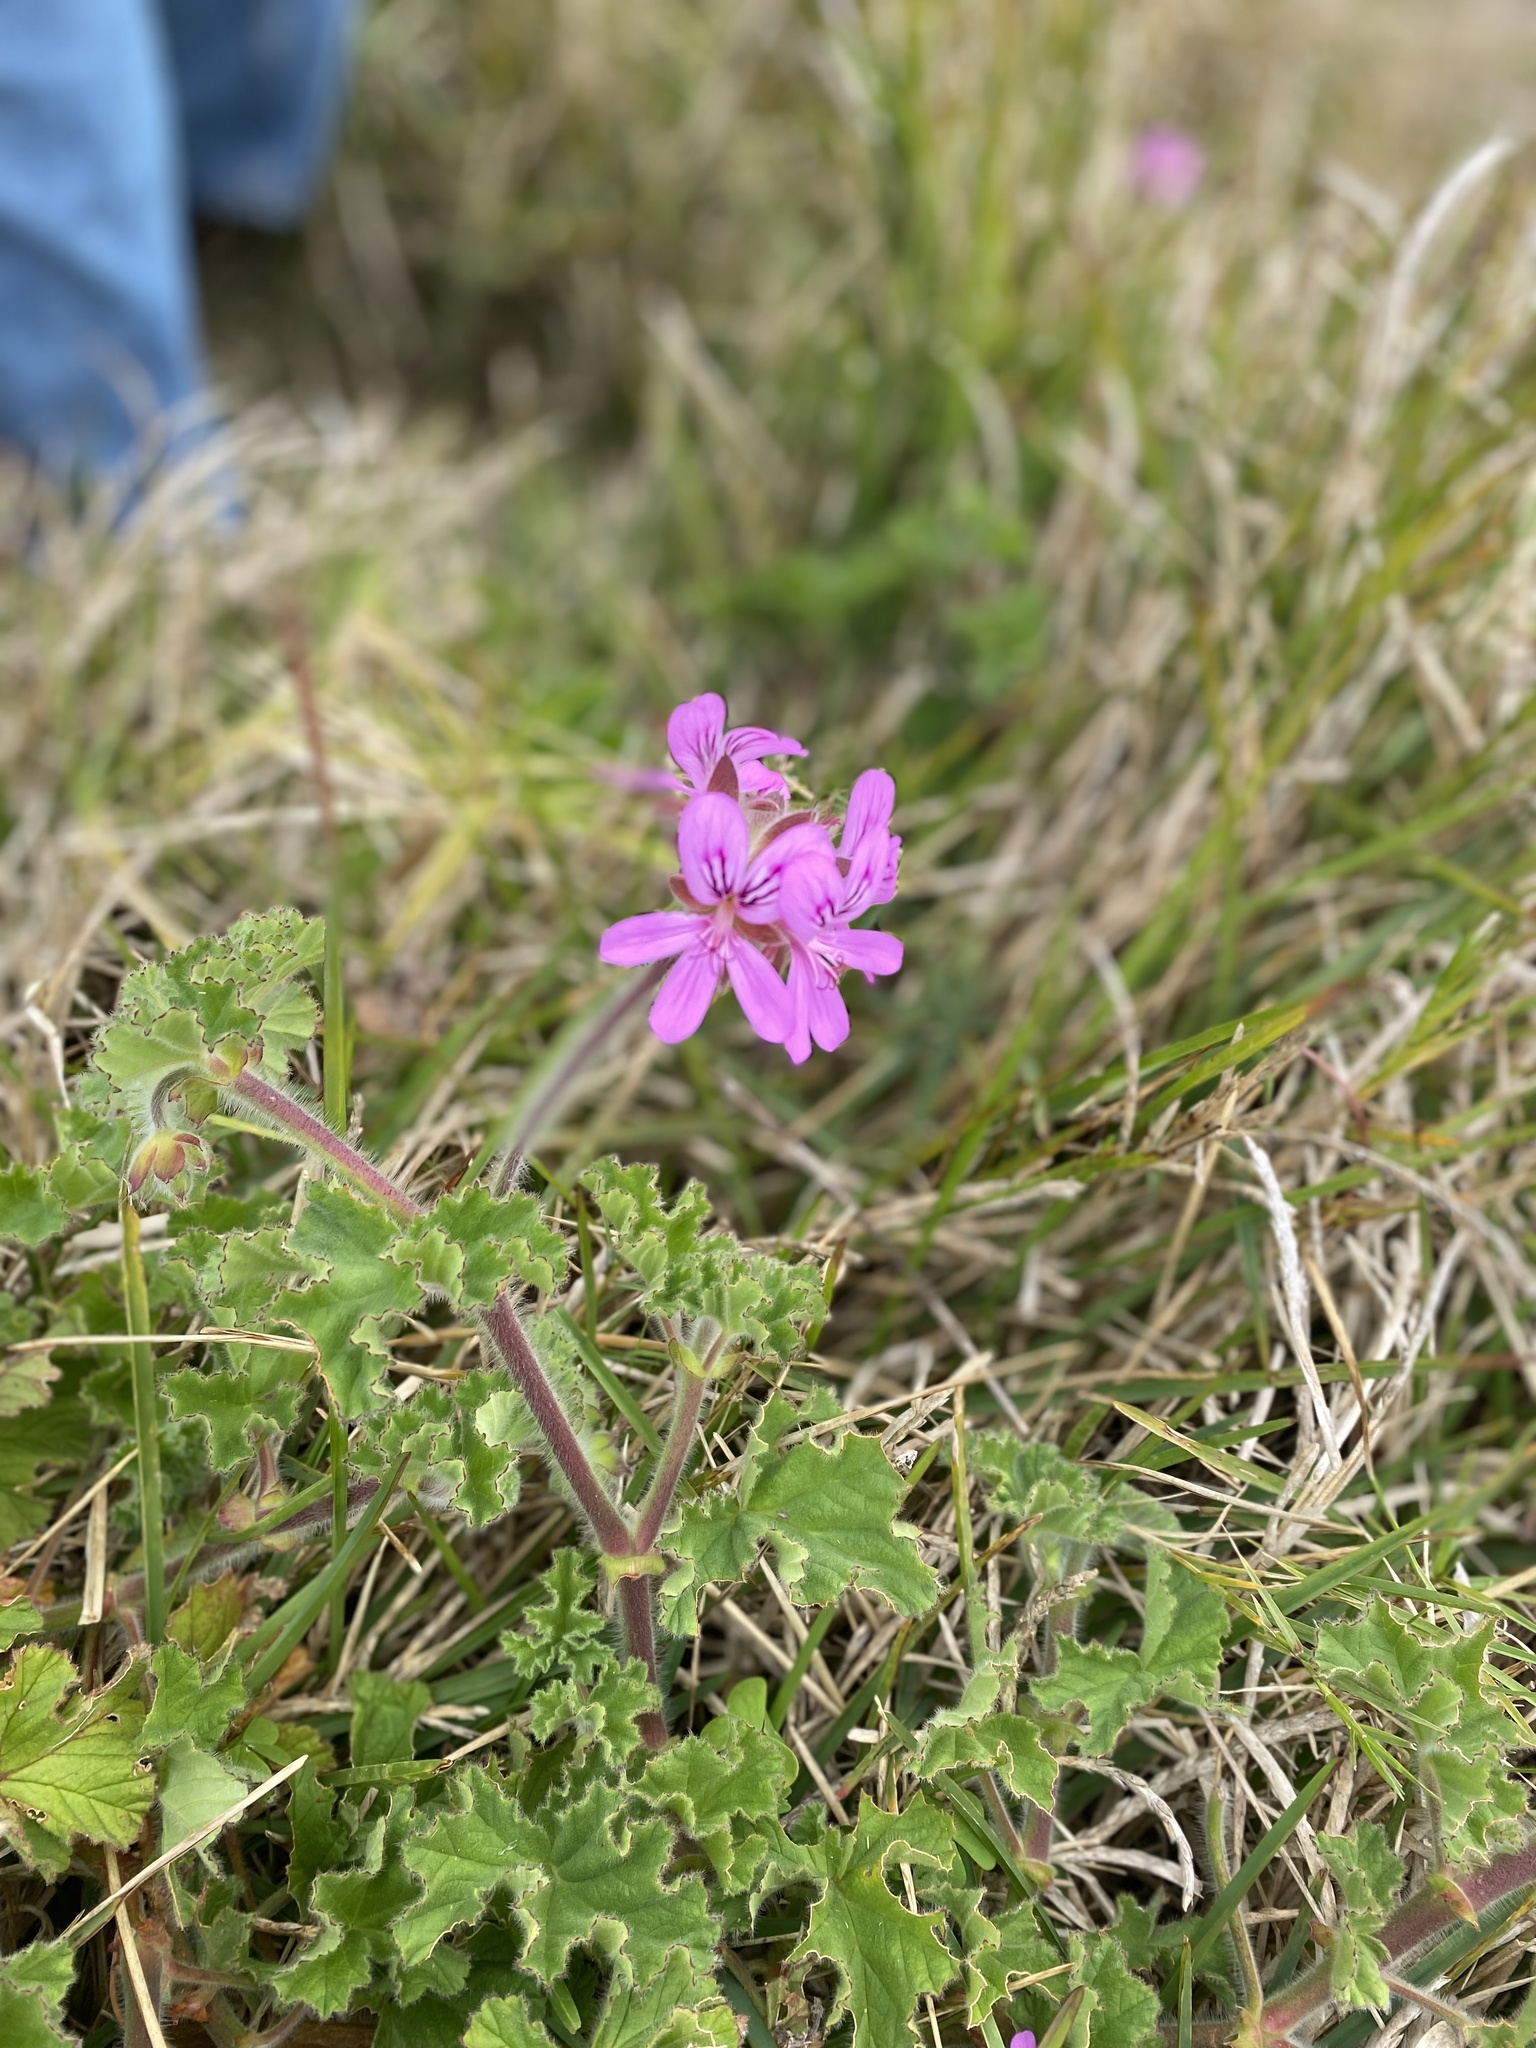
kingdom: Plantae
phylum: Tracheophyta
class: Magnoliopsida
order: Geraniales
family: Geraniaceae
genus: Pelargonium
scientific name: Pelargonium capitatum
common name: Rose scented geranium
